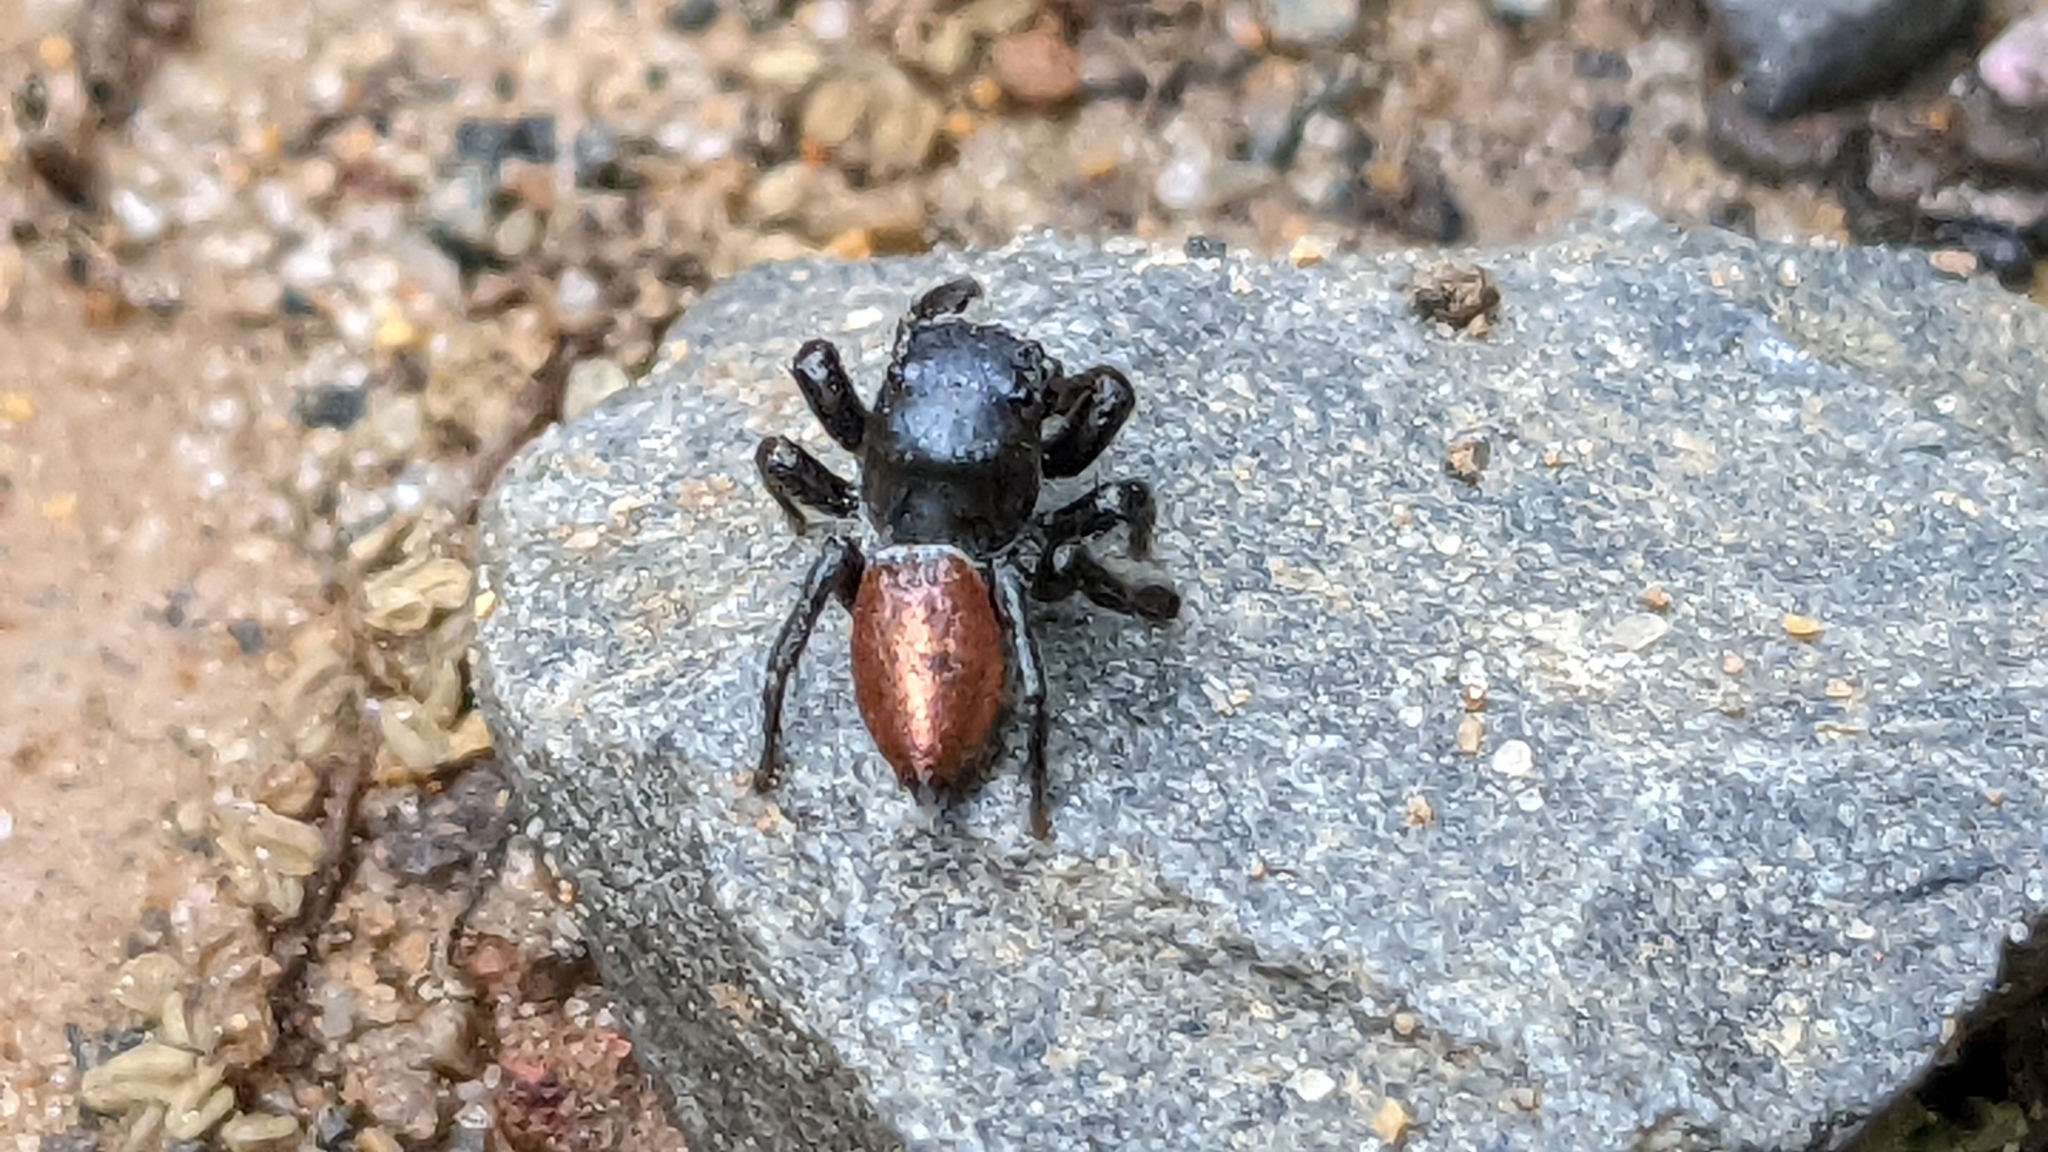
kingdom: Animalia
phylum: Arthropoda
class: Arachnida
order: Araneae
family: Salticidae
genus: Habronattus
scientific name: Habronattus decorus
